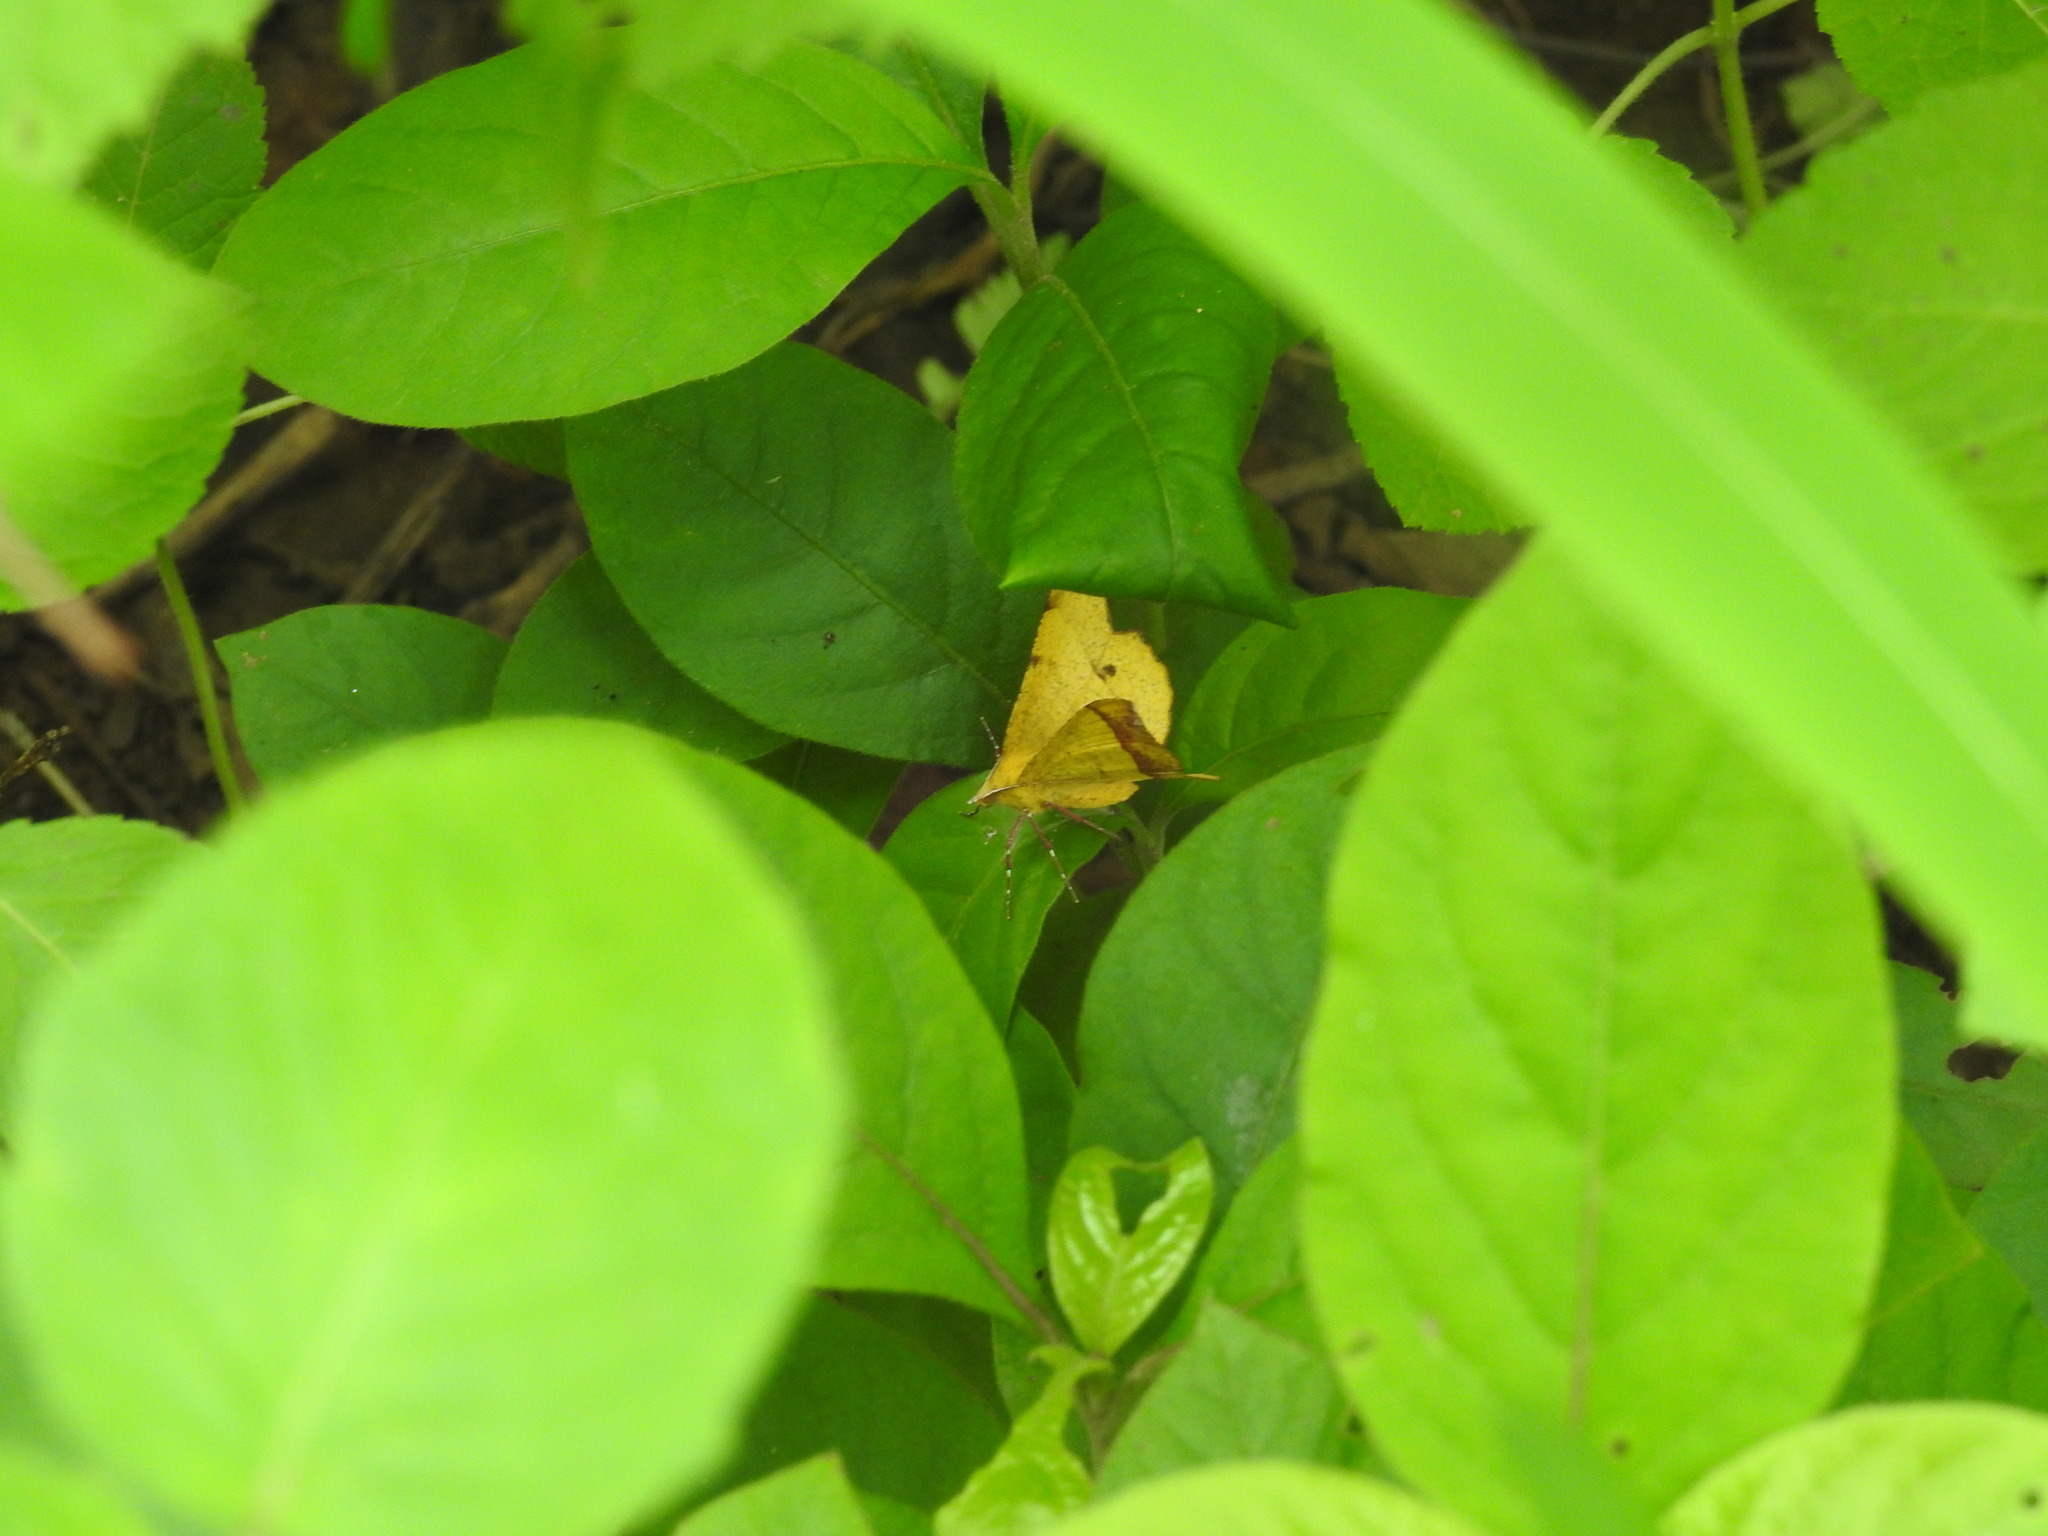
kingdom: Animalia
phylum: Arthropoda
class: Insecta
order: Lepidoptera
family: Geometridae
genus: Hyperythra
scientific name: Hyperythra lutea
